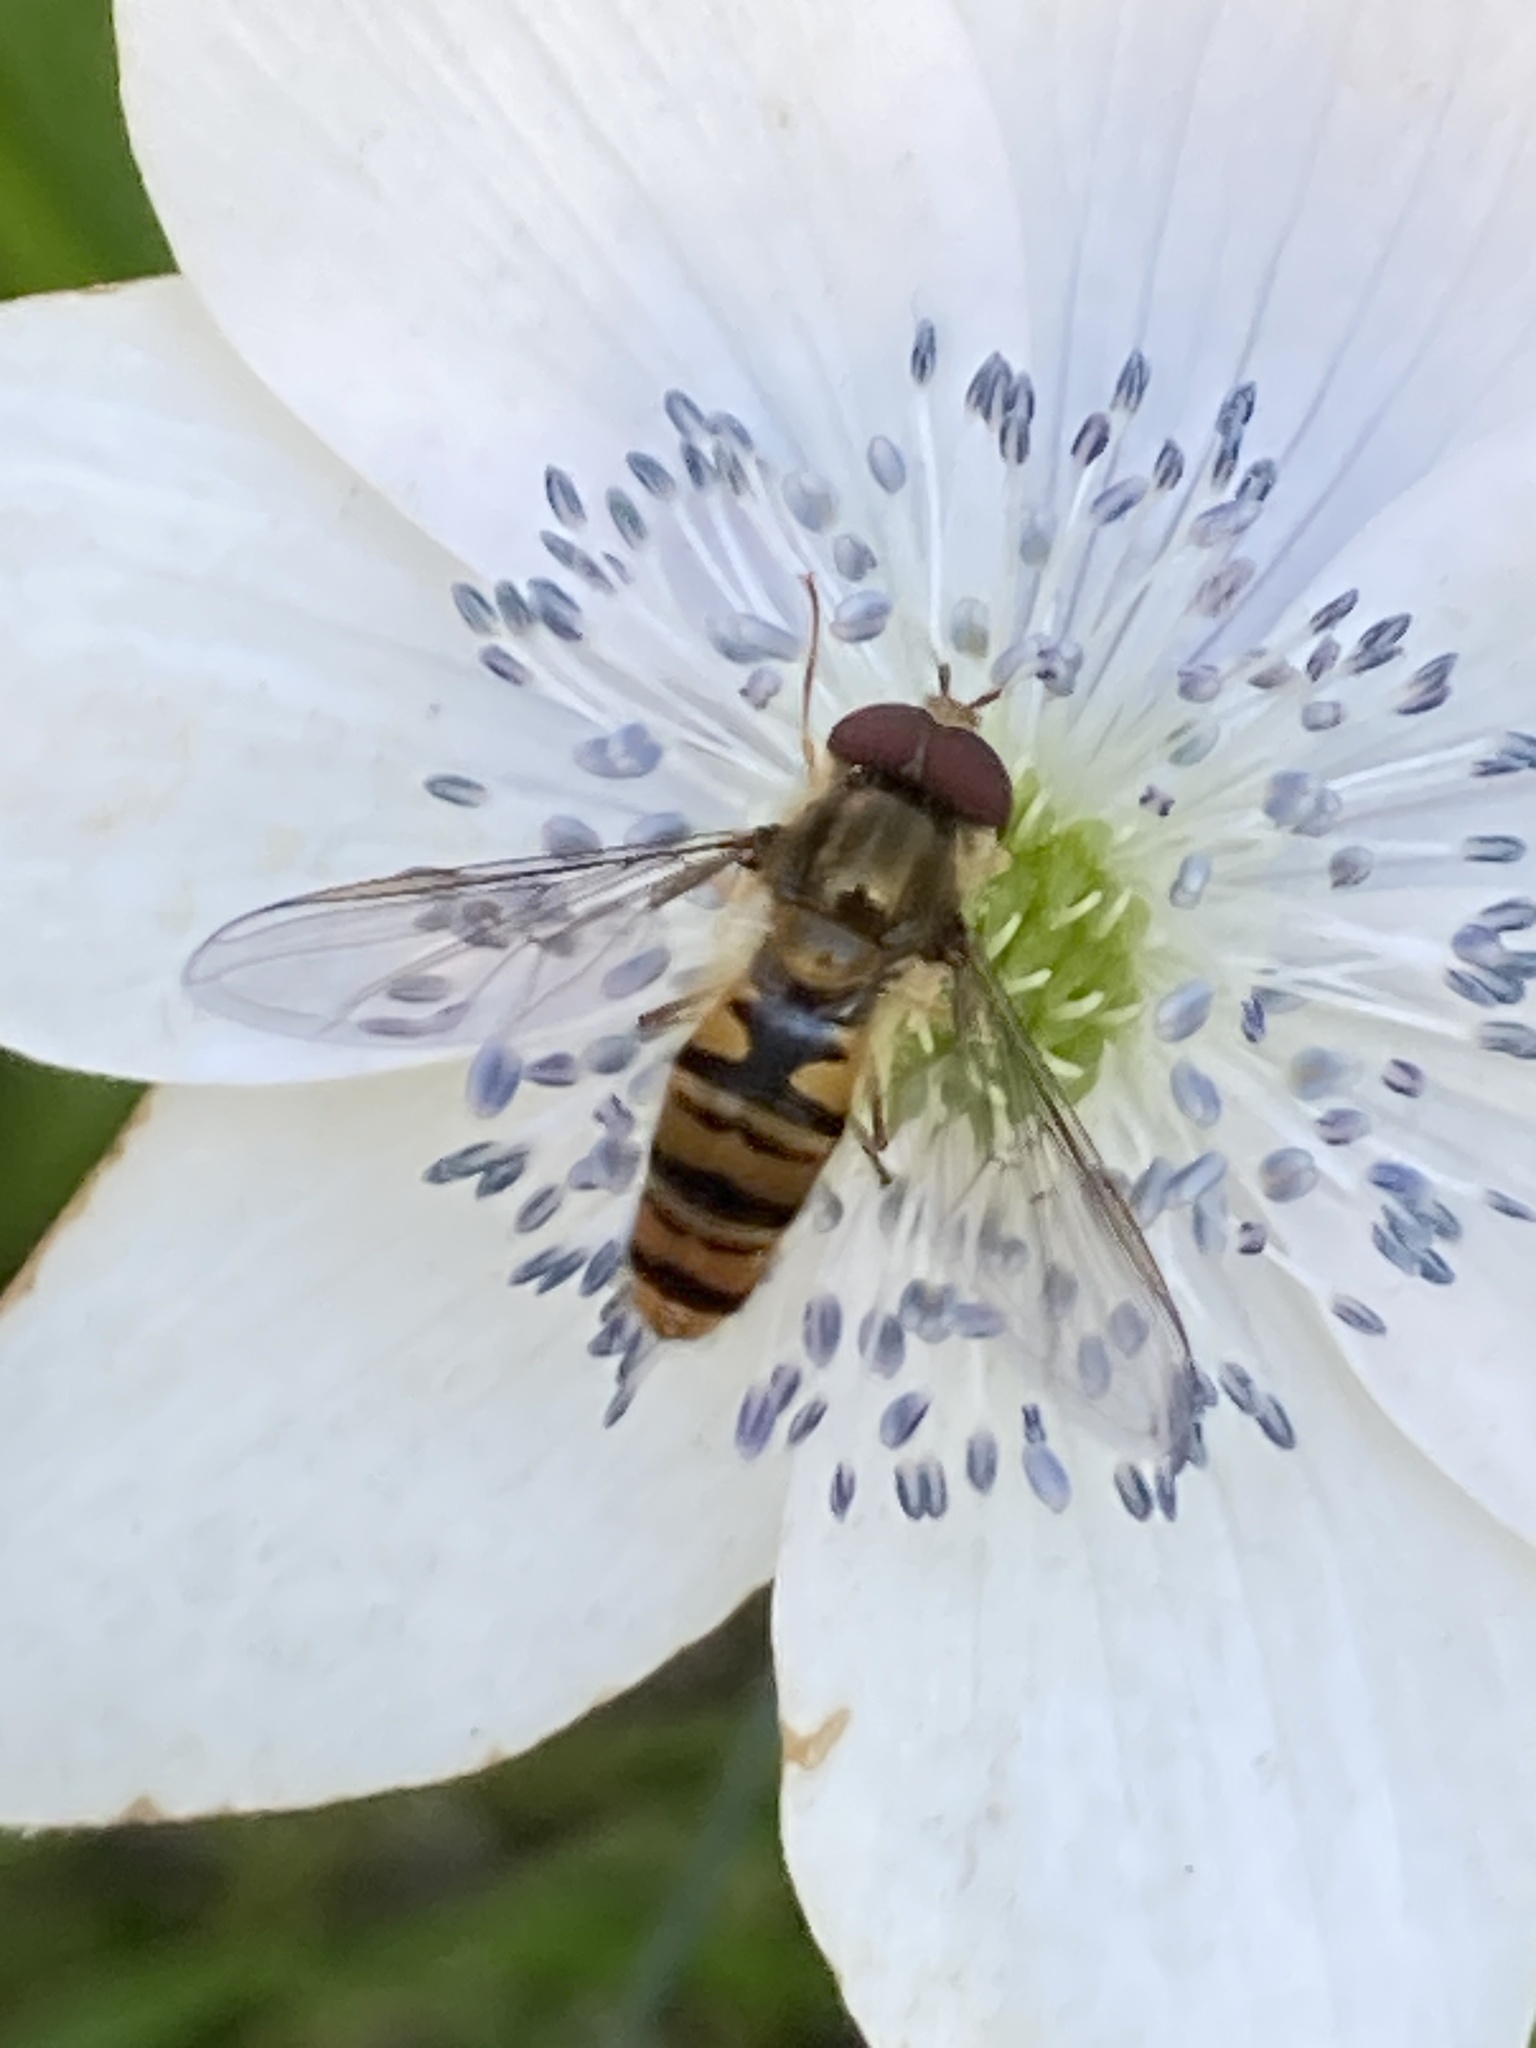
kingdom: Animalia
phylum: Arthropoda
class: Insecta
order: Diptera
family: Syrphidae
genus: Episyrphus
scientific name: Episyrphus balteatus
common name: Marmalade hoverfly
